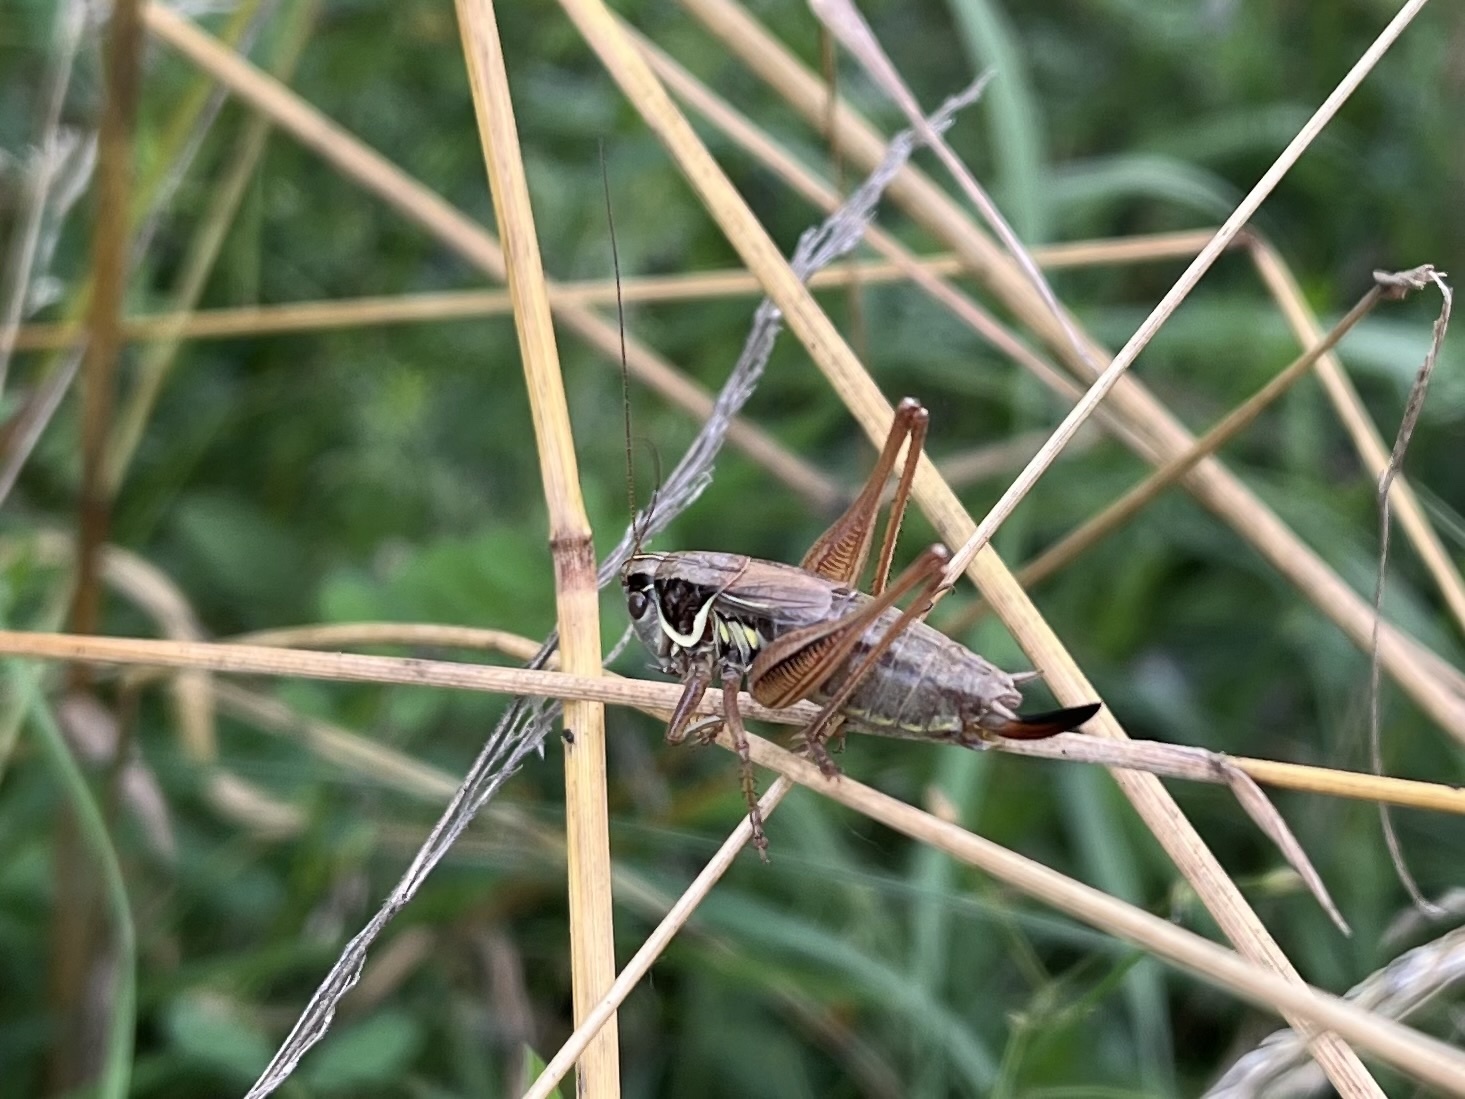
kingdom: Animalia
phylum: Arthropoda
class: Insecta
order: Orthoptera
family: Tettigoniidae
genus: Roeseliana
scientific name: Roeseliana roeselii
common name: Roesel's bush cricket
